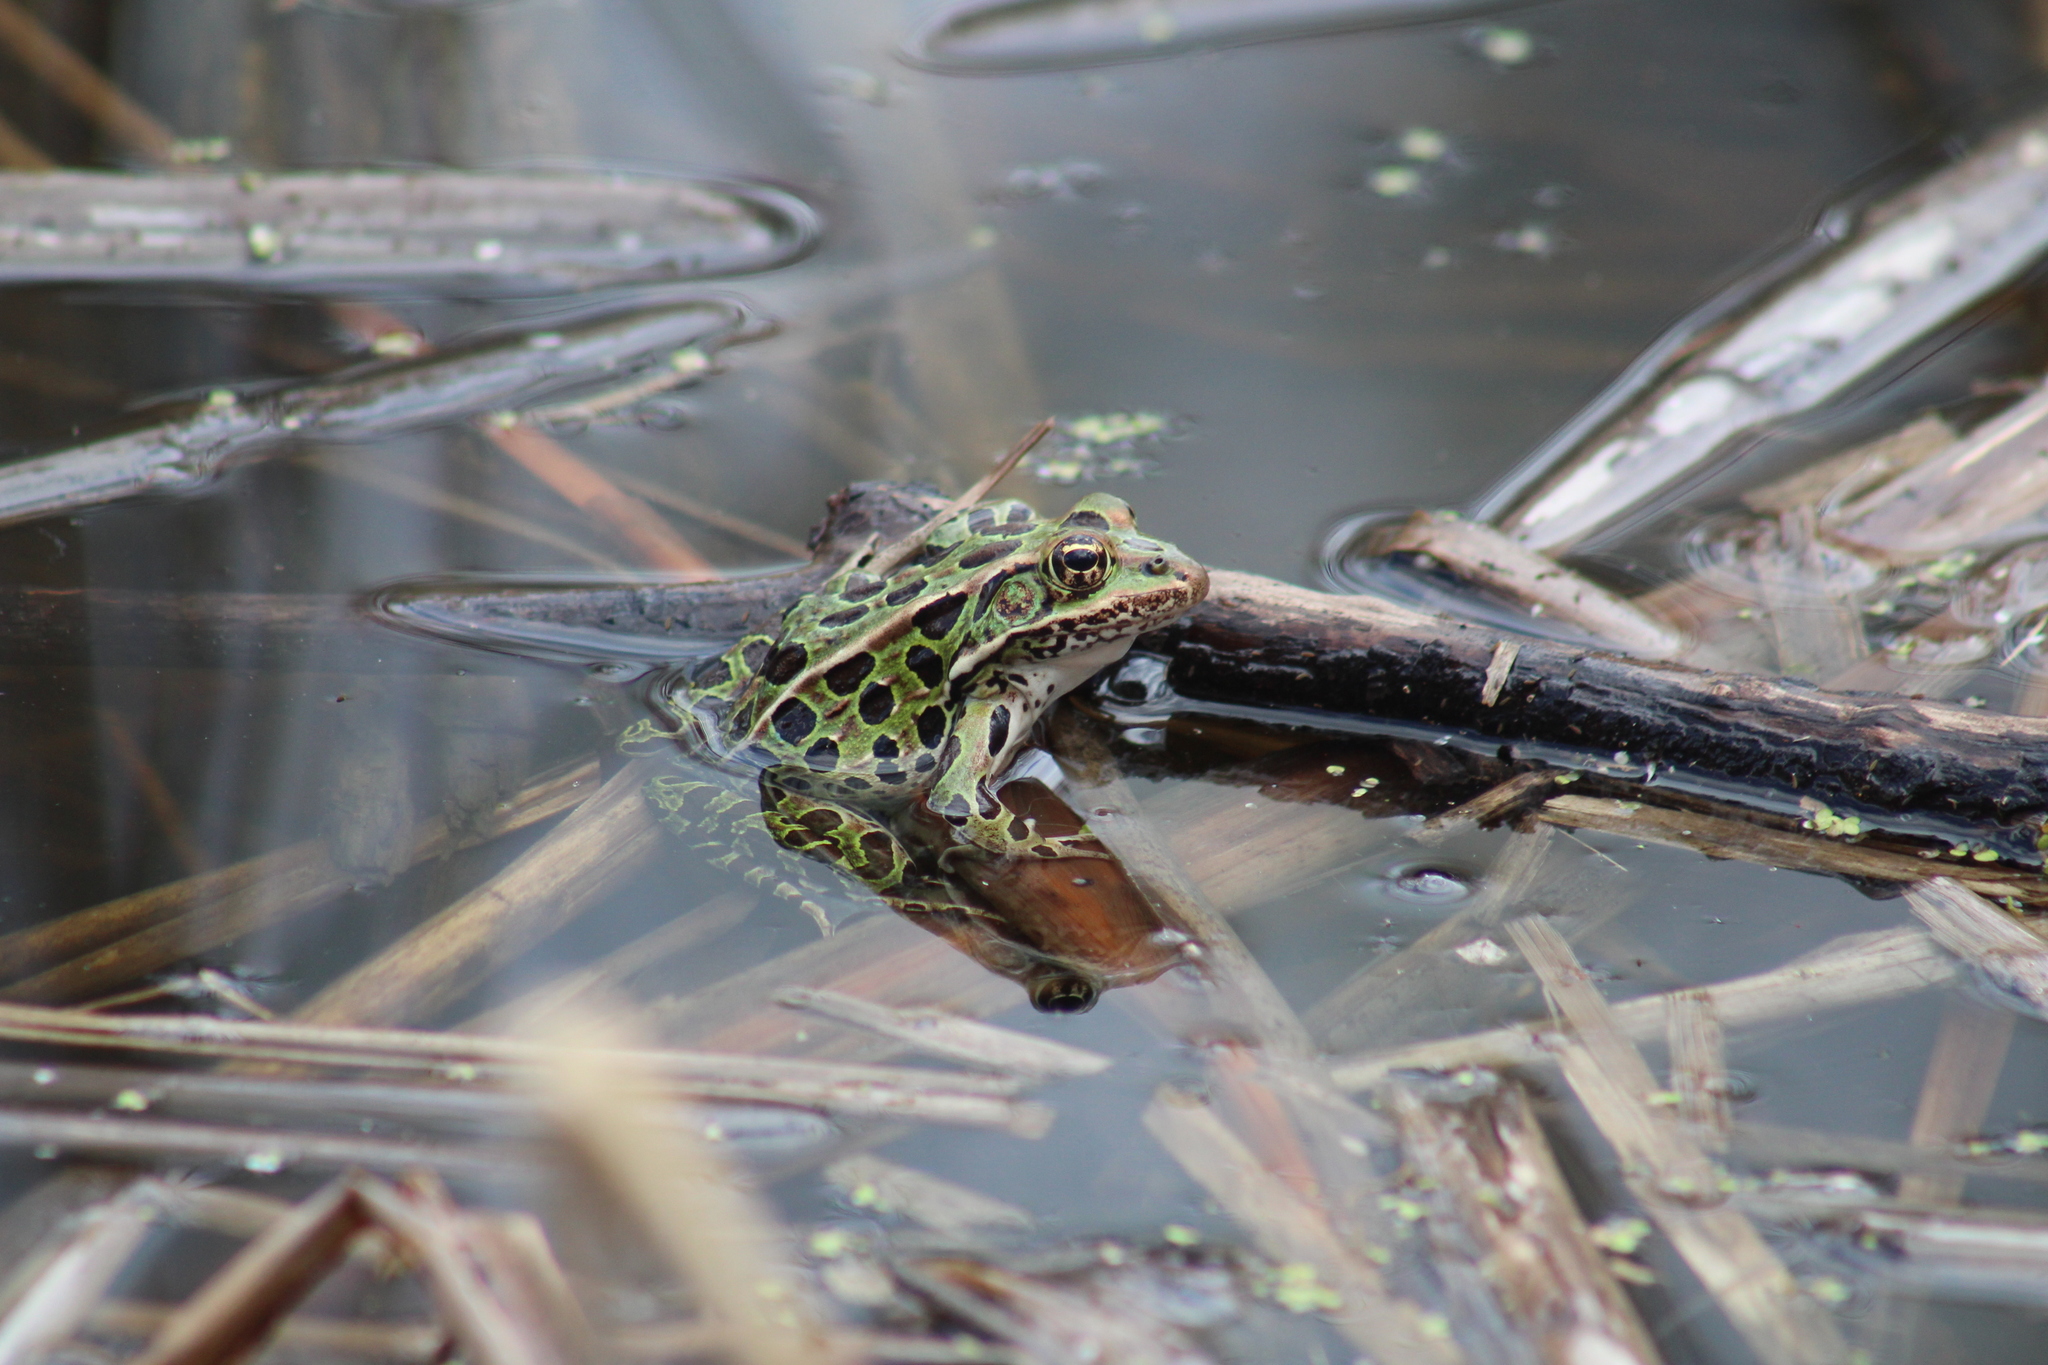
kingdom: Animalia
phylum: Chordata
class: Amphibia
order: Anura
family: Ranidae
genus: Lithobates
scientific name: Lithobates pipiens
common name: Northern leopard frog
